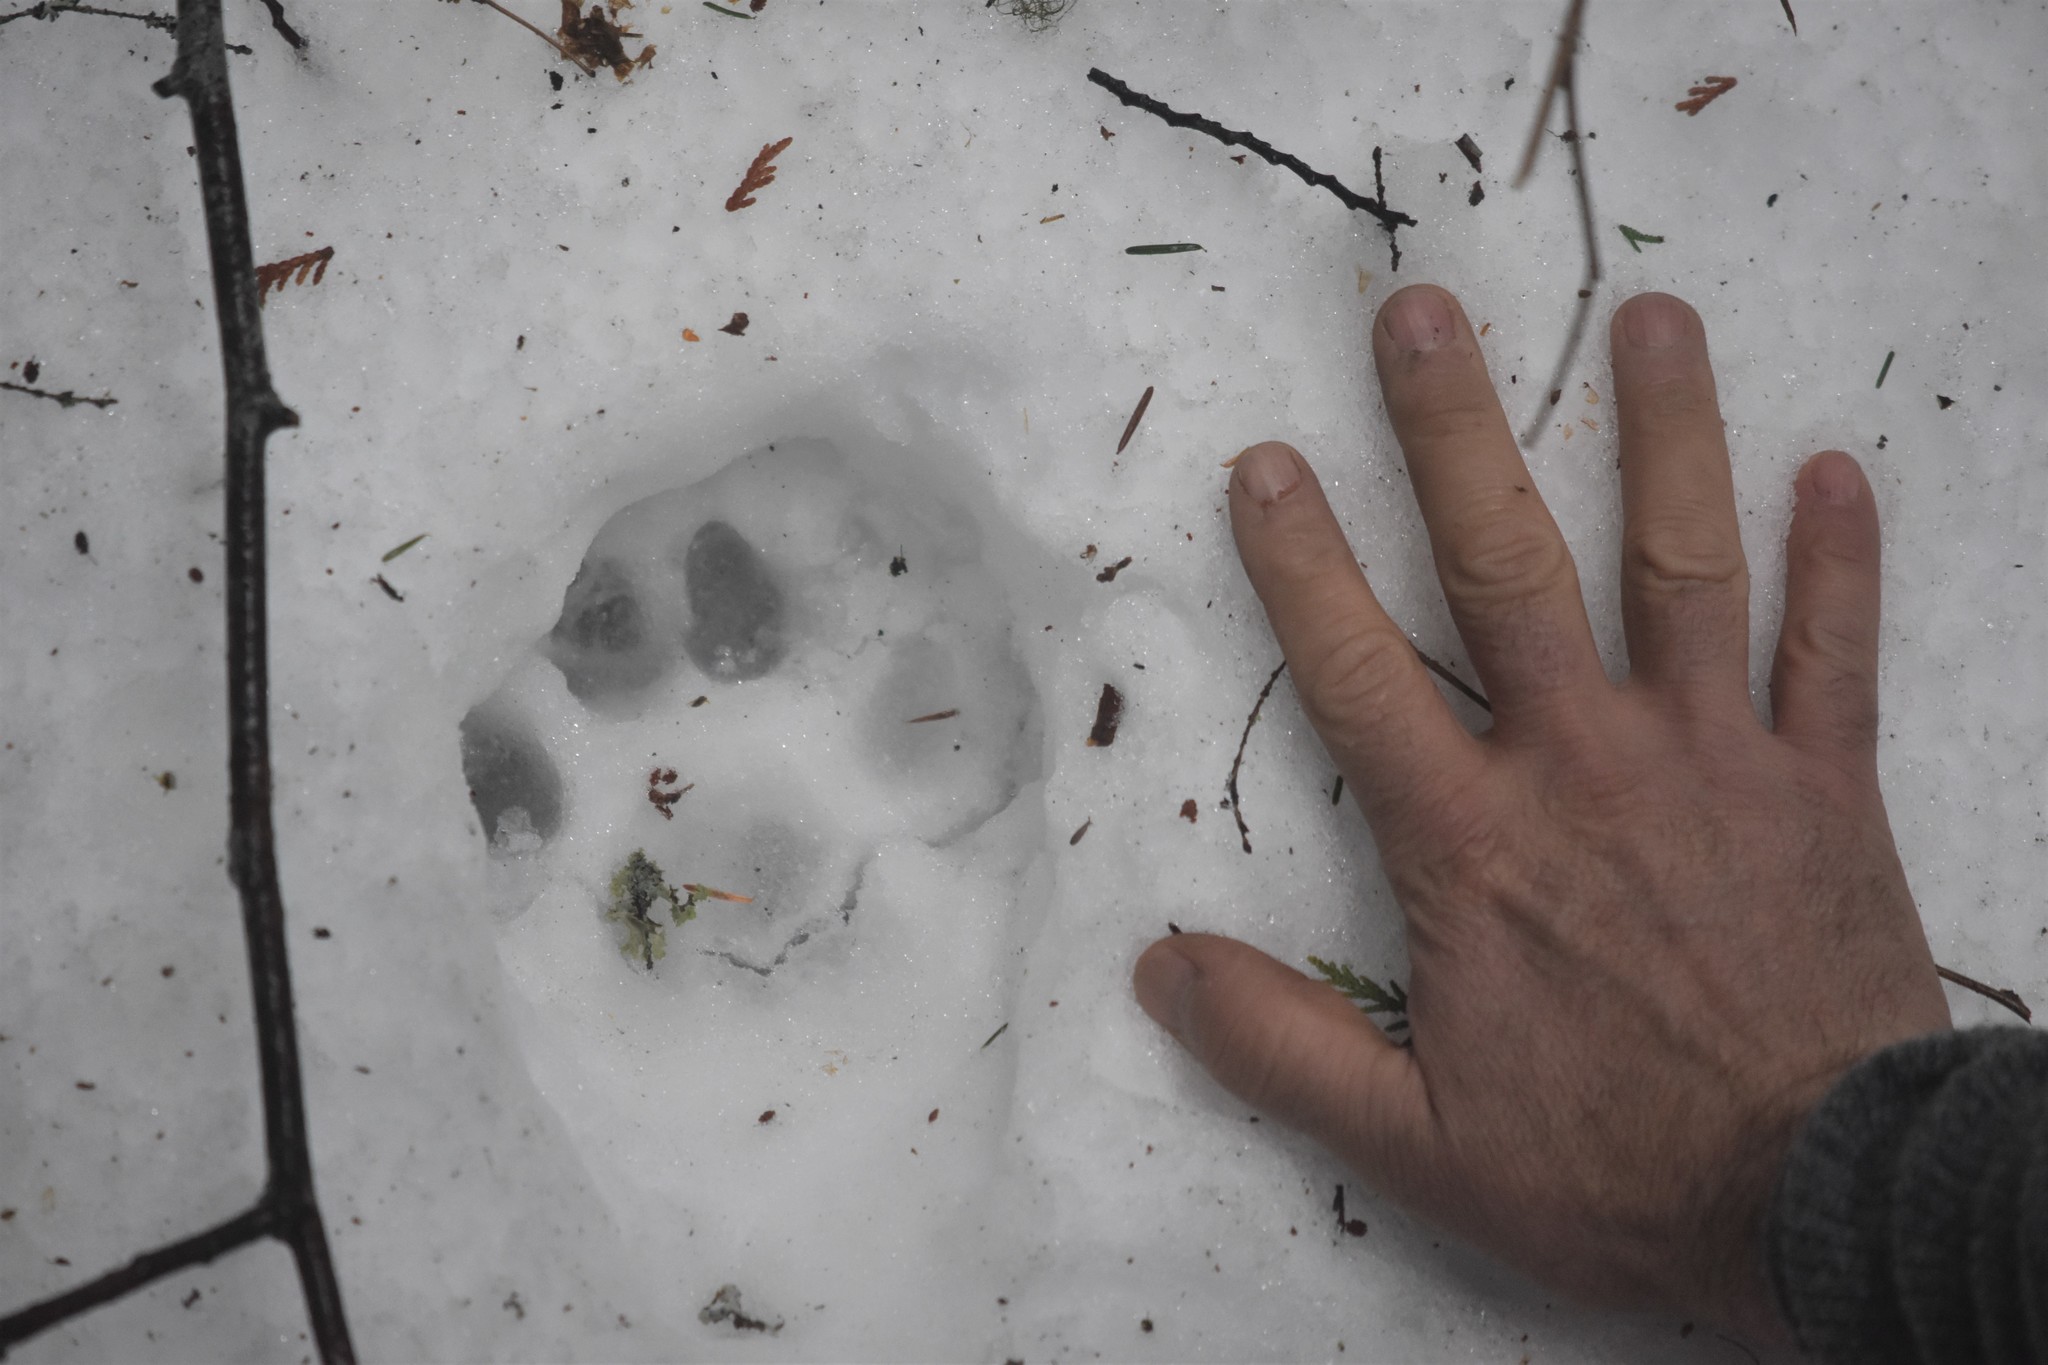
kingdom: Animalia
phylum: Chordata
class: Mammalia
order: Carnivora
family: Felidae
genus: Puma
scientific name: Puma concolor
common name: Puma
